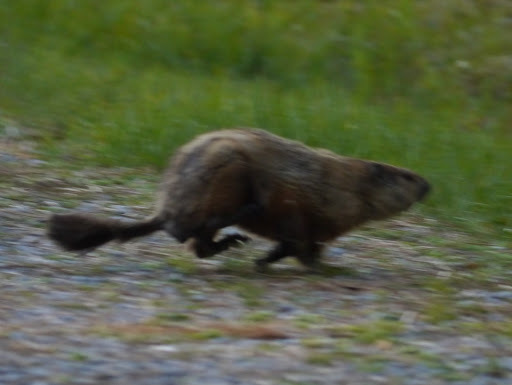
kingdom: Animalia
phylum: Chordata
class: Mammalia
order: Rodentia
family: Sciuridae
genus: Marmota
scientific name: Marmota monax
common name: Groundhog
